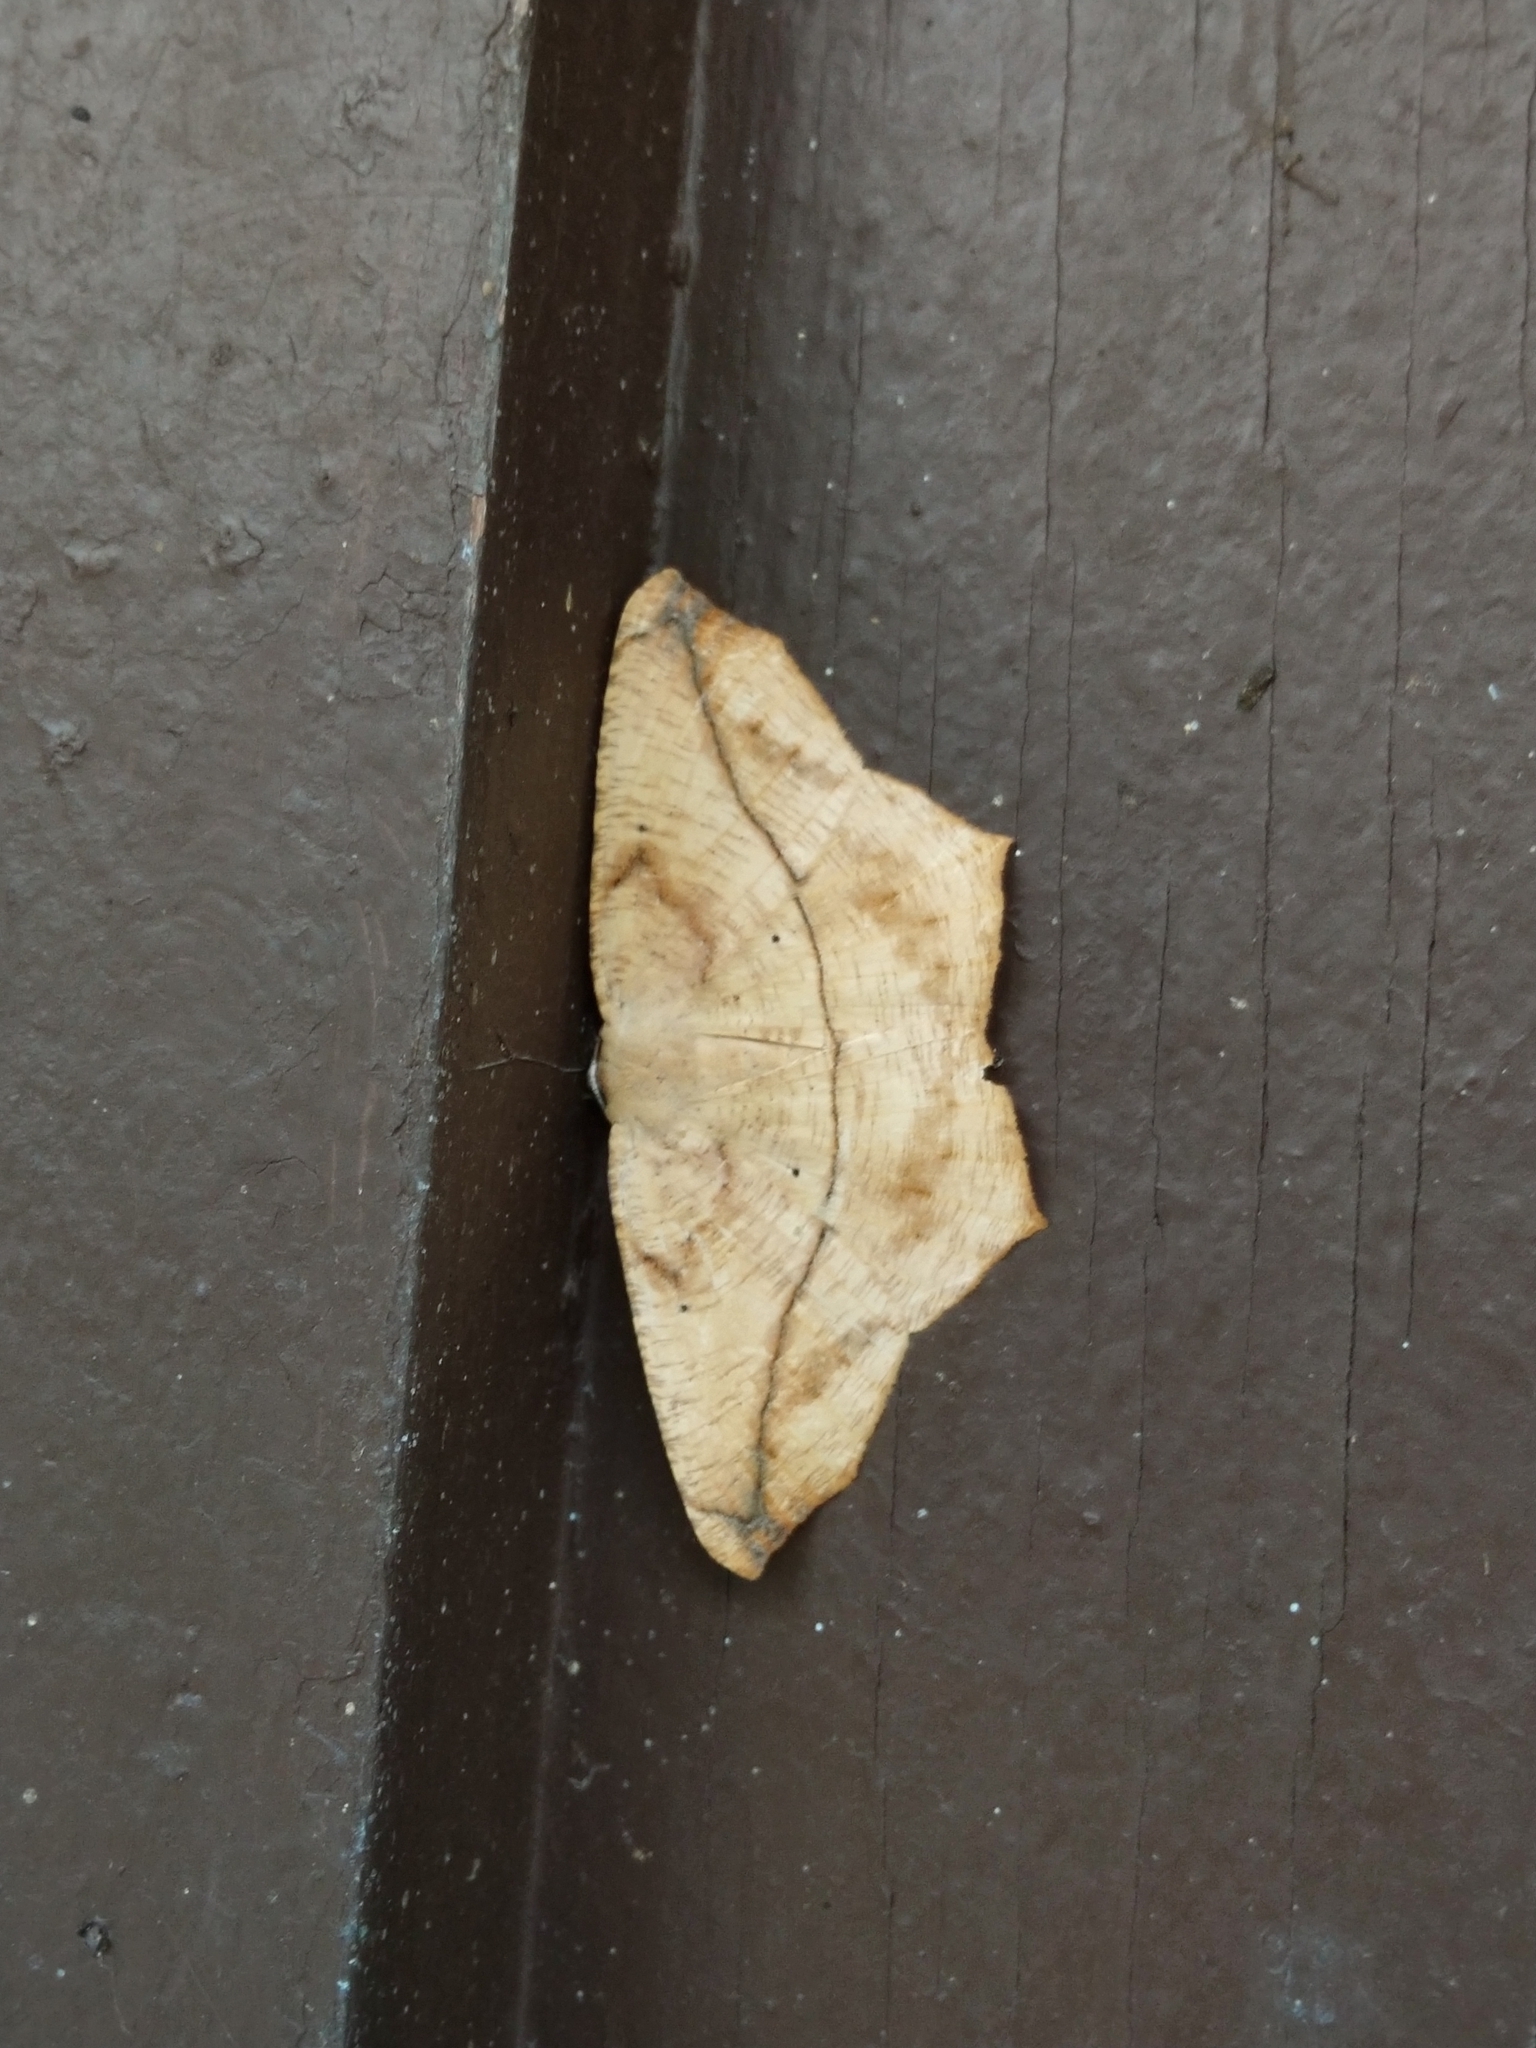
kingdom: Animalia
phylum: Arthropoda
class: Insecta
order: Lepidoptera
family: Geometridae
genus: Prochoerodes
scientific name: Prochoerodes lineola
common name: Large maple spanworm
